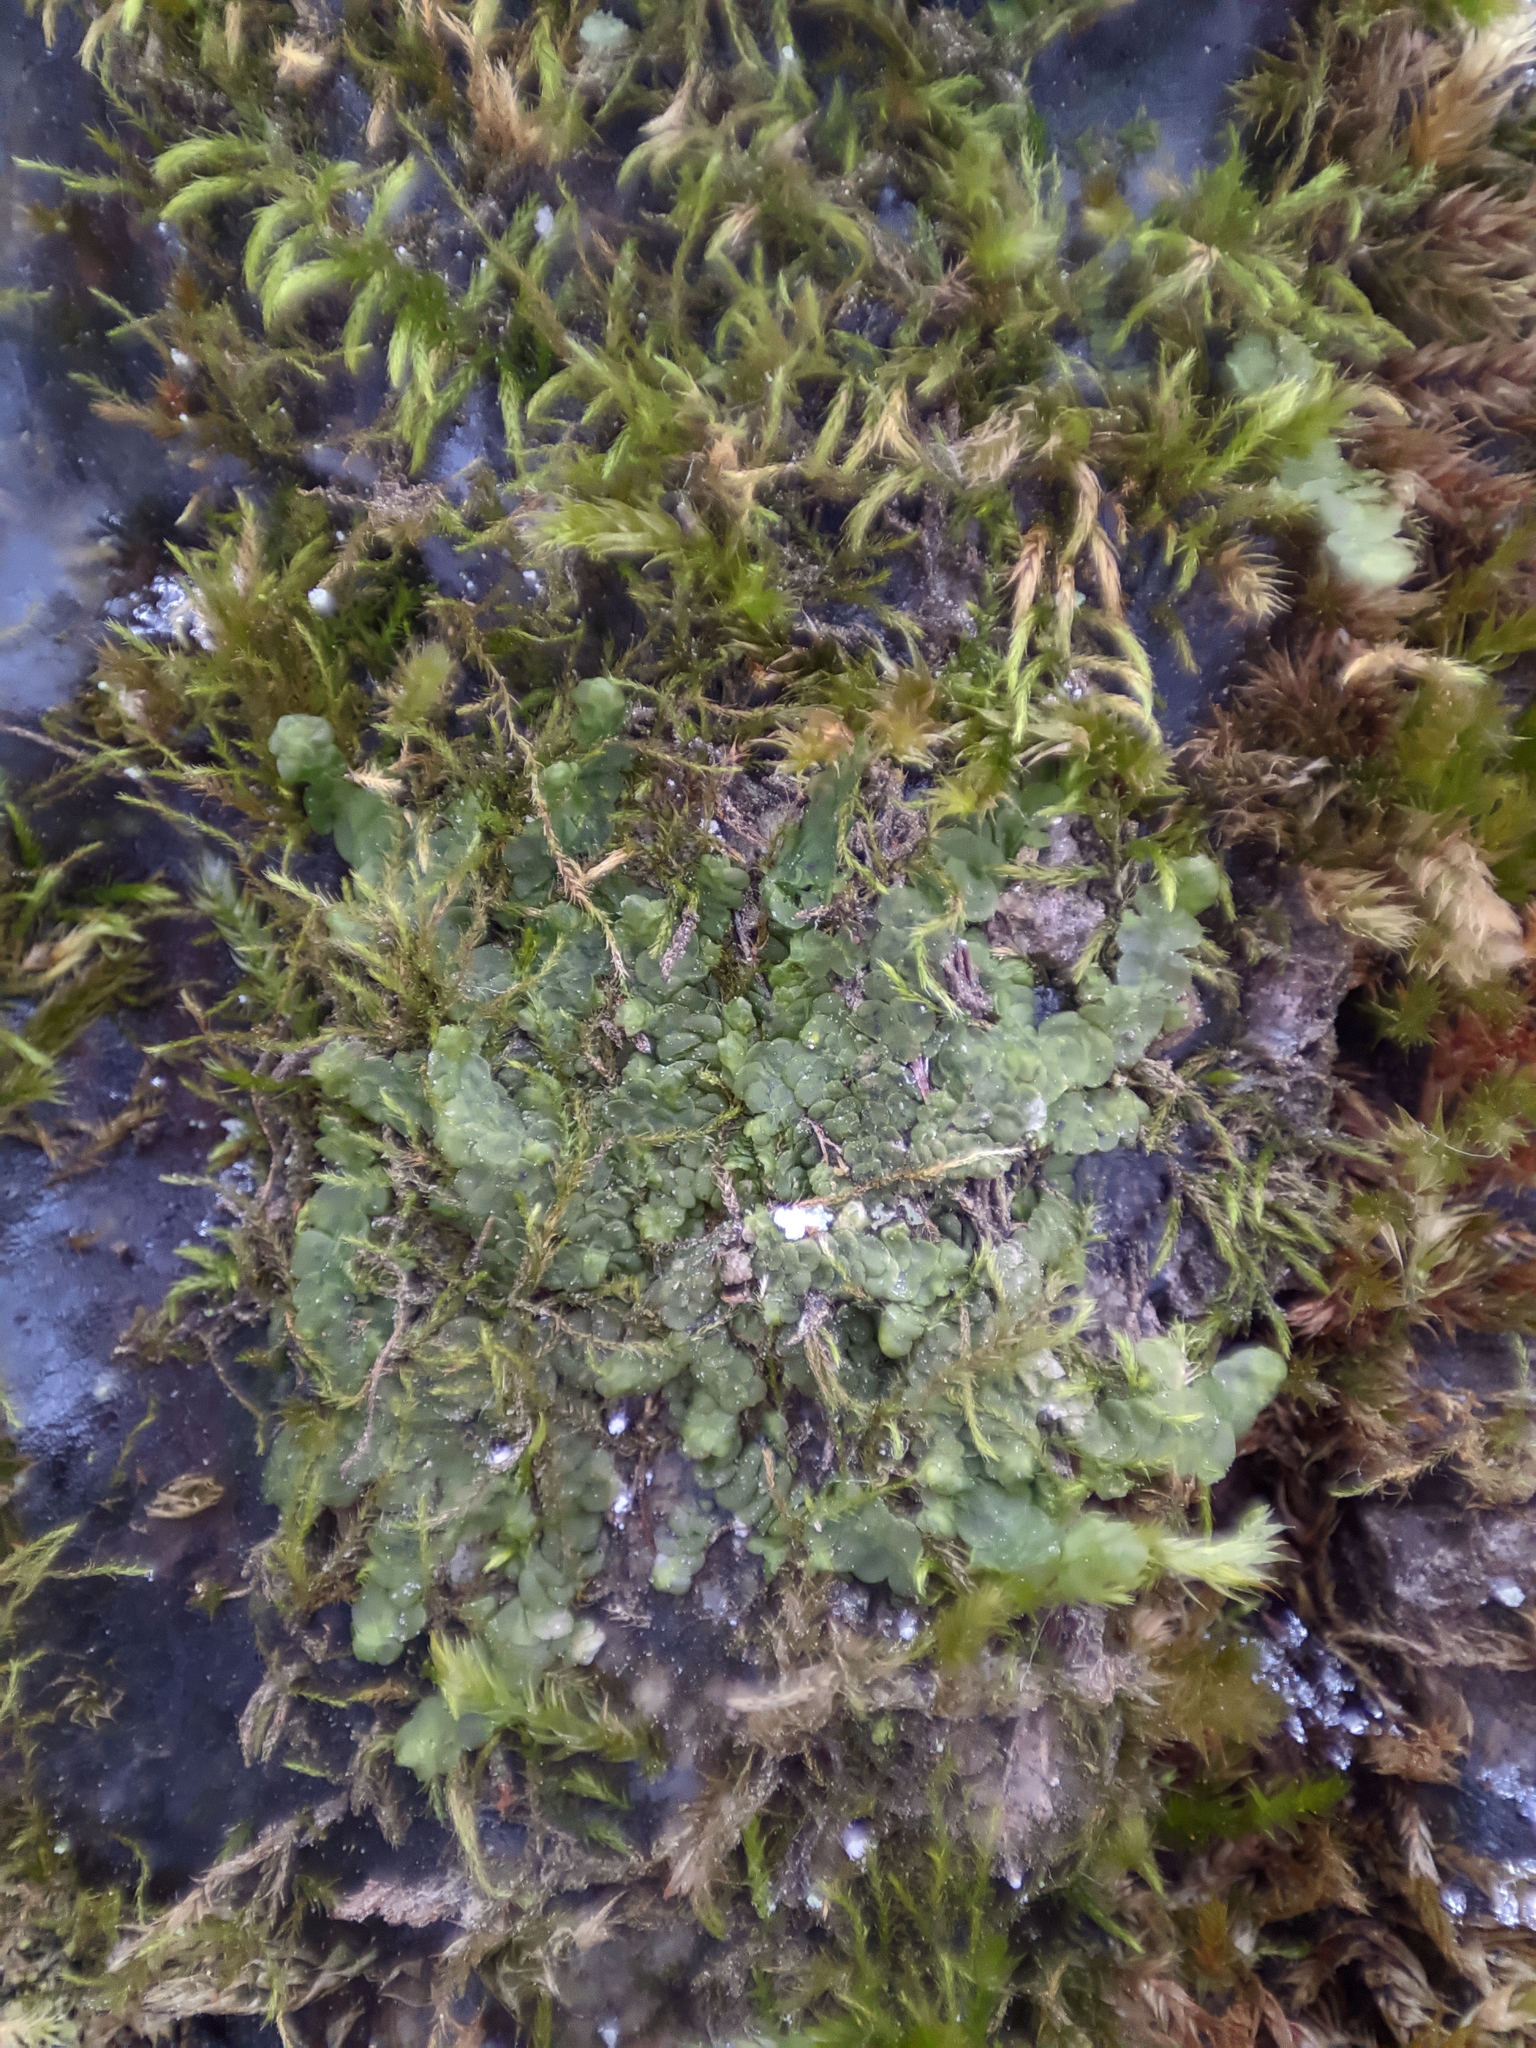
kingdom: Plantae
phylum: Marchantiophyta
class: Jungermanniopsida
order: Porellales
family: Radulaceae
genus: Radula
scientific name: Radula complanata
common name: Flat-leaved scalewort
